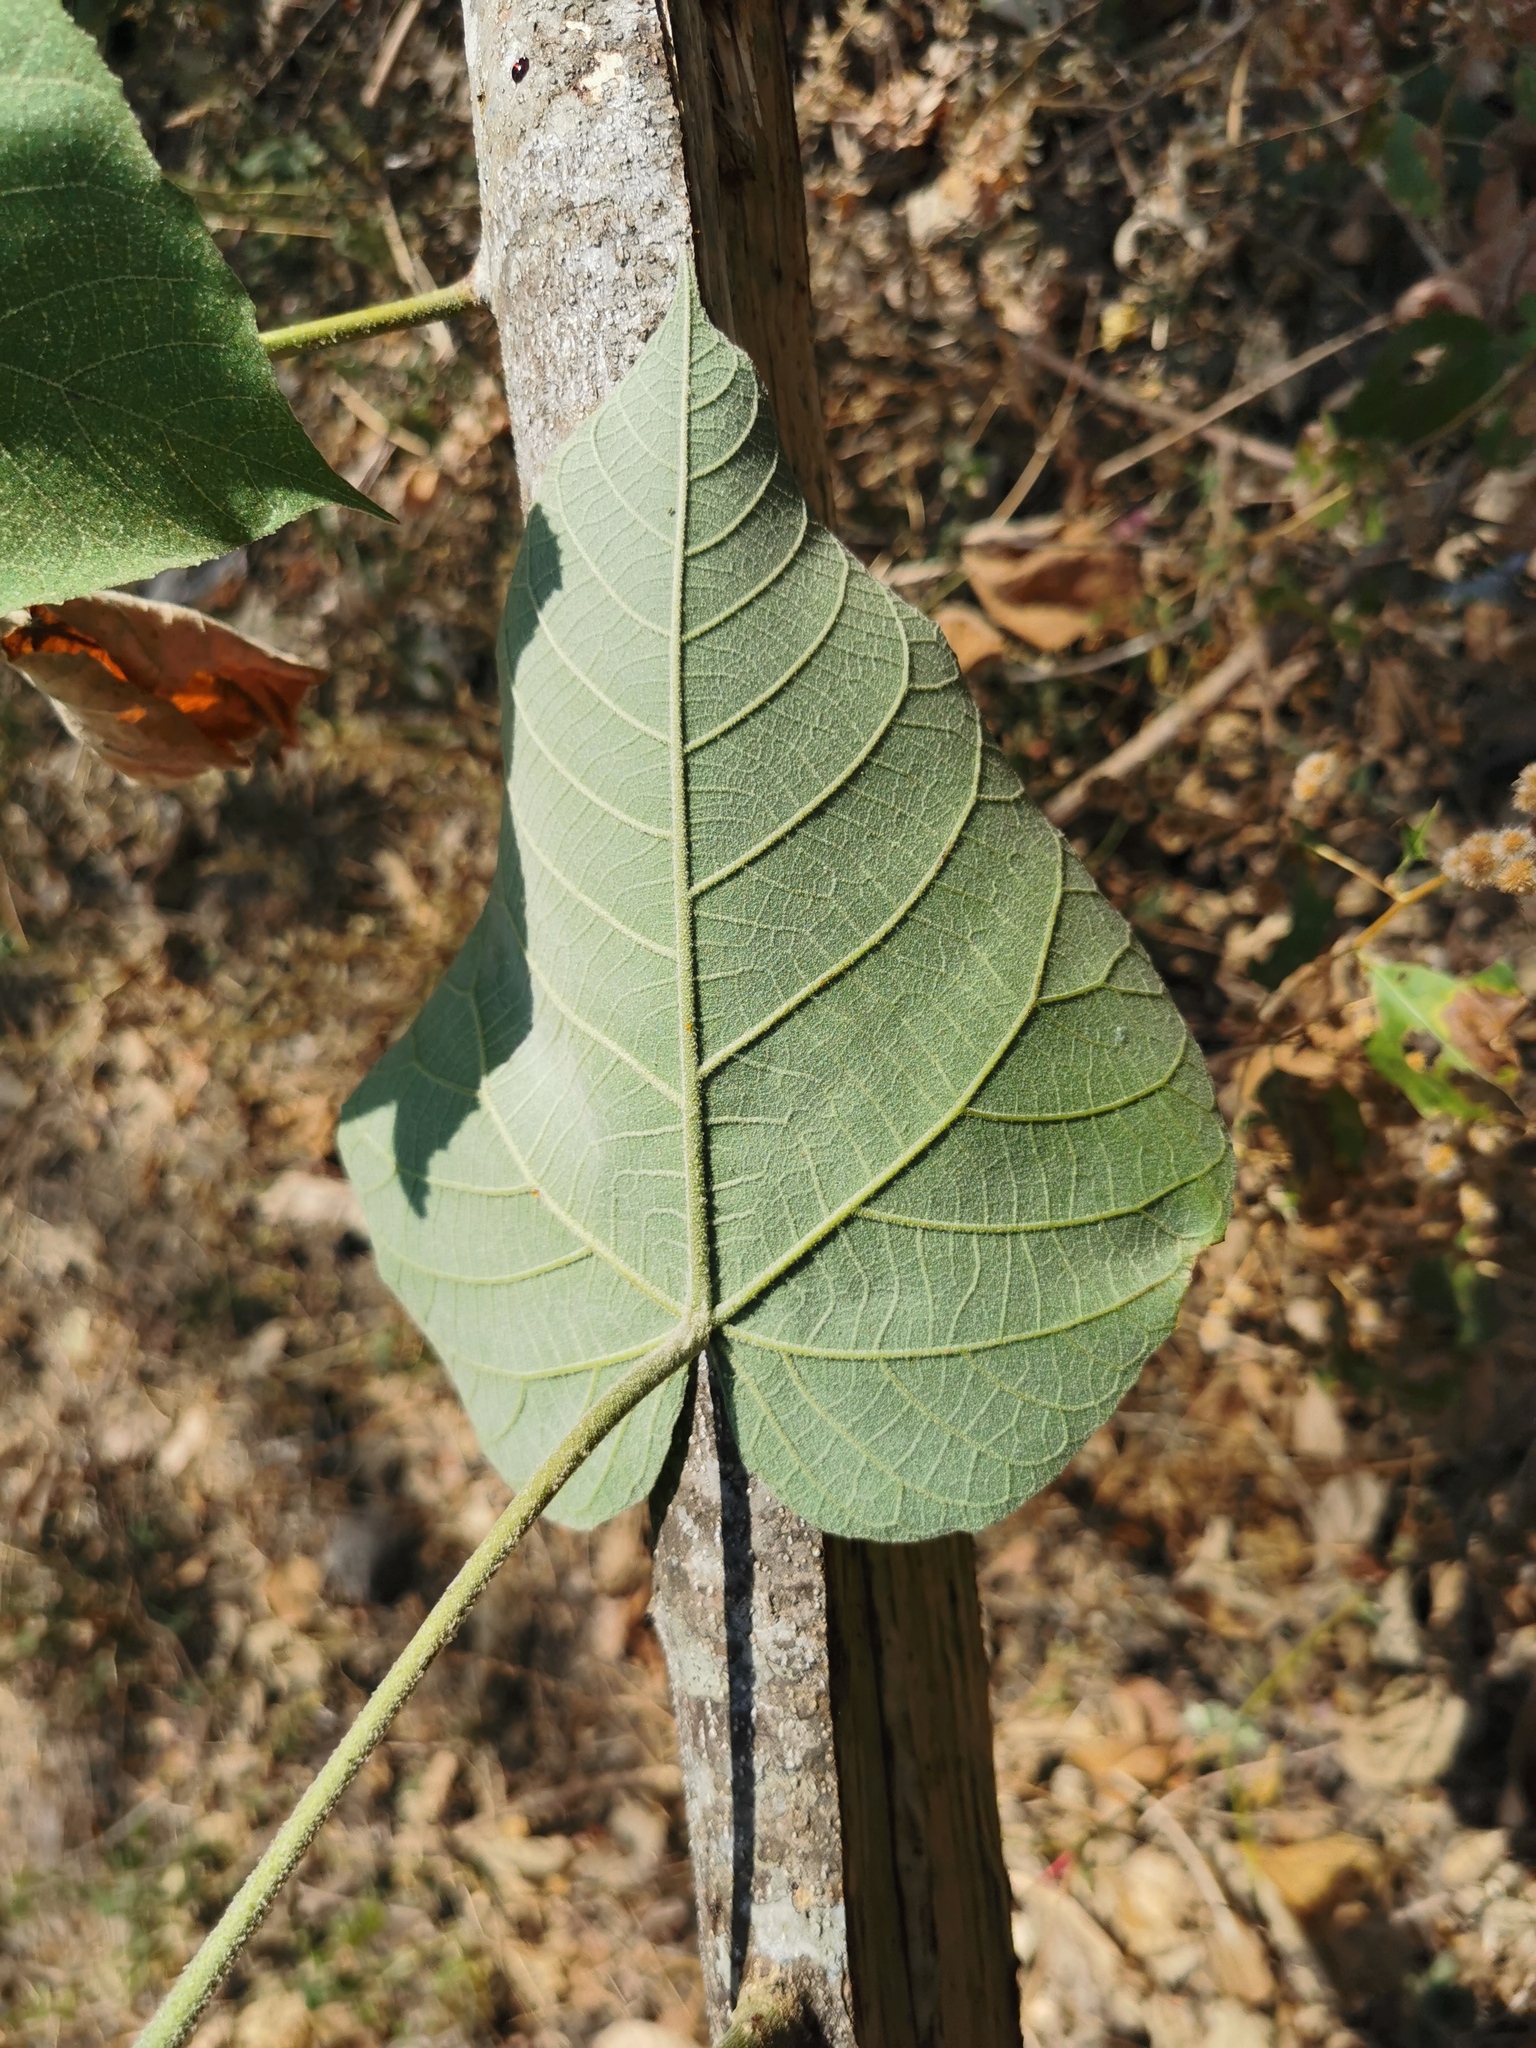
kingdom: Plantae
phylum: Tracheophyta
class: Magnoliopsida
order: Malpighiales
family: Euphorbiaceae
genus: Croton
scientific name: Croton draco
